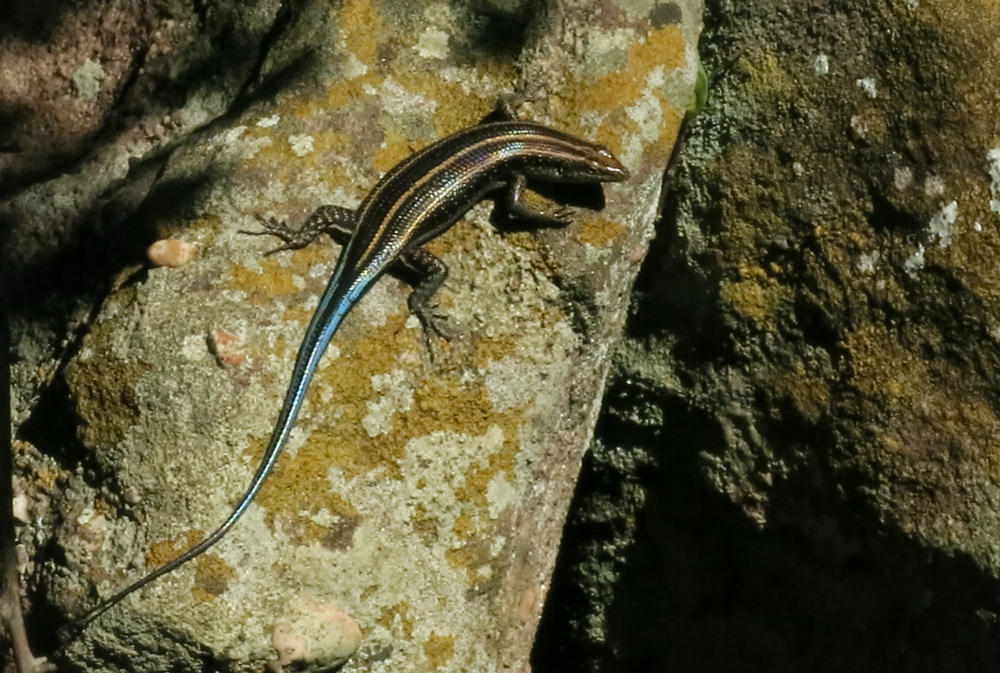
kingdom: Animalia
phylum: Chordata
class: Squamata
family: Scincidae
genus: Trachylepis
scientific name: Trachylepis margaritifera
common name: Rainbow skink
